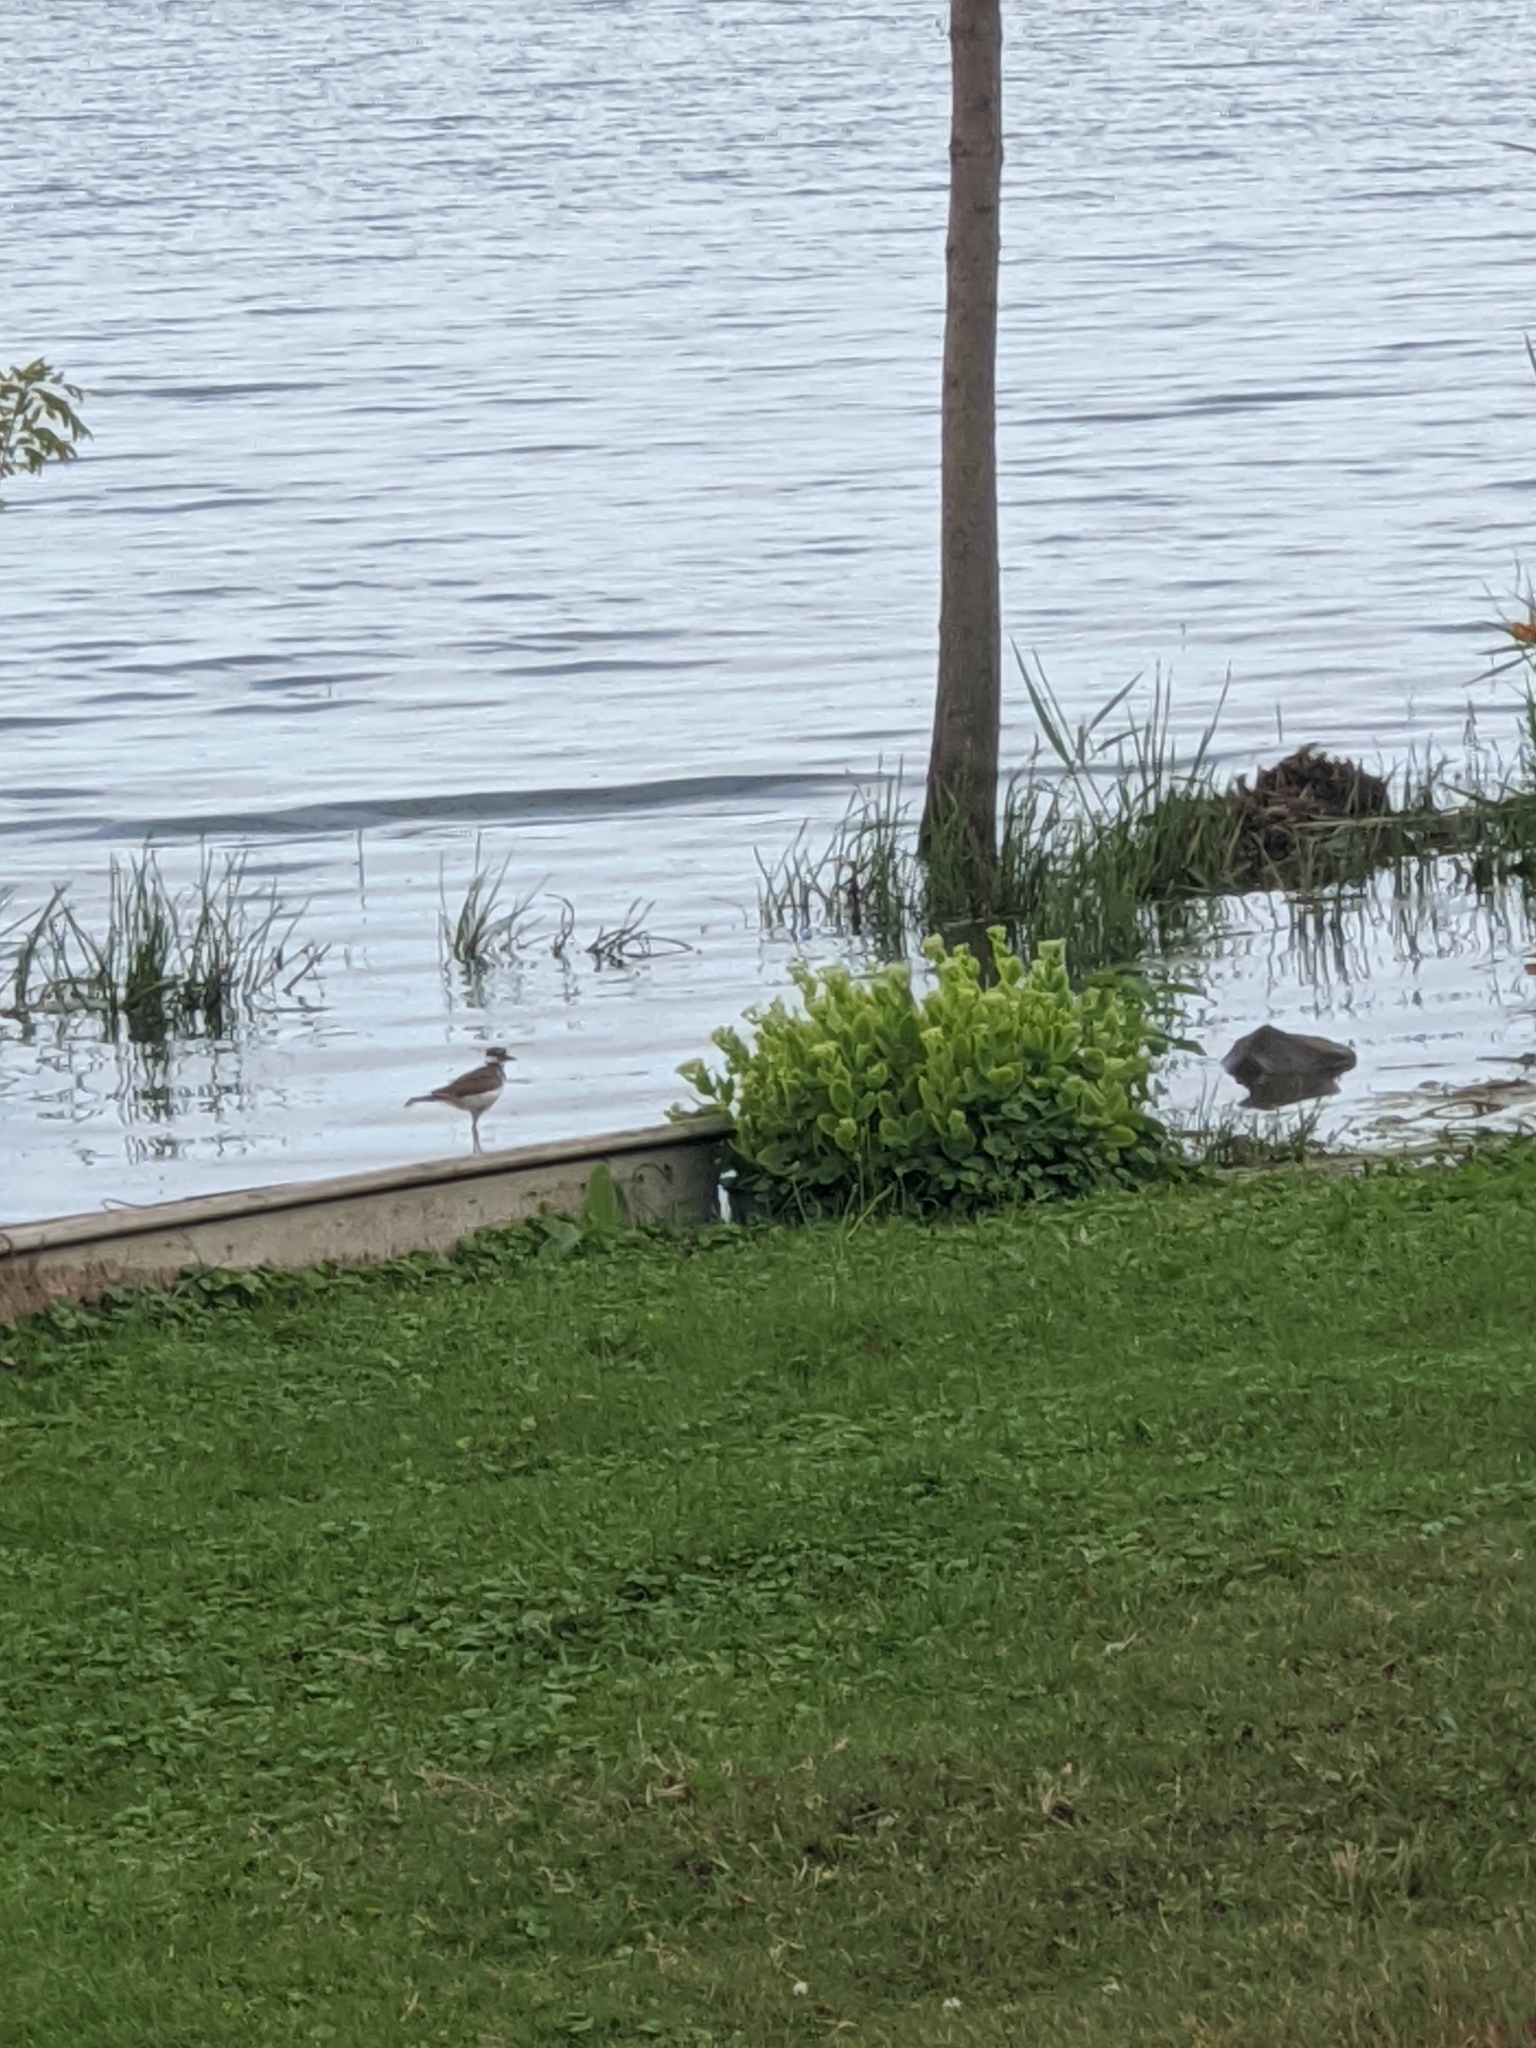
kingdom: Animalia
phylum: Chordata
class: Aves
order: Charadriiformes
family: Charadriidae
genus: Charadrius
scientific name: Charadrius vociferus
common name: Killdeer
